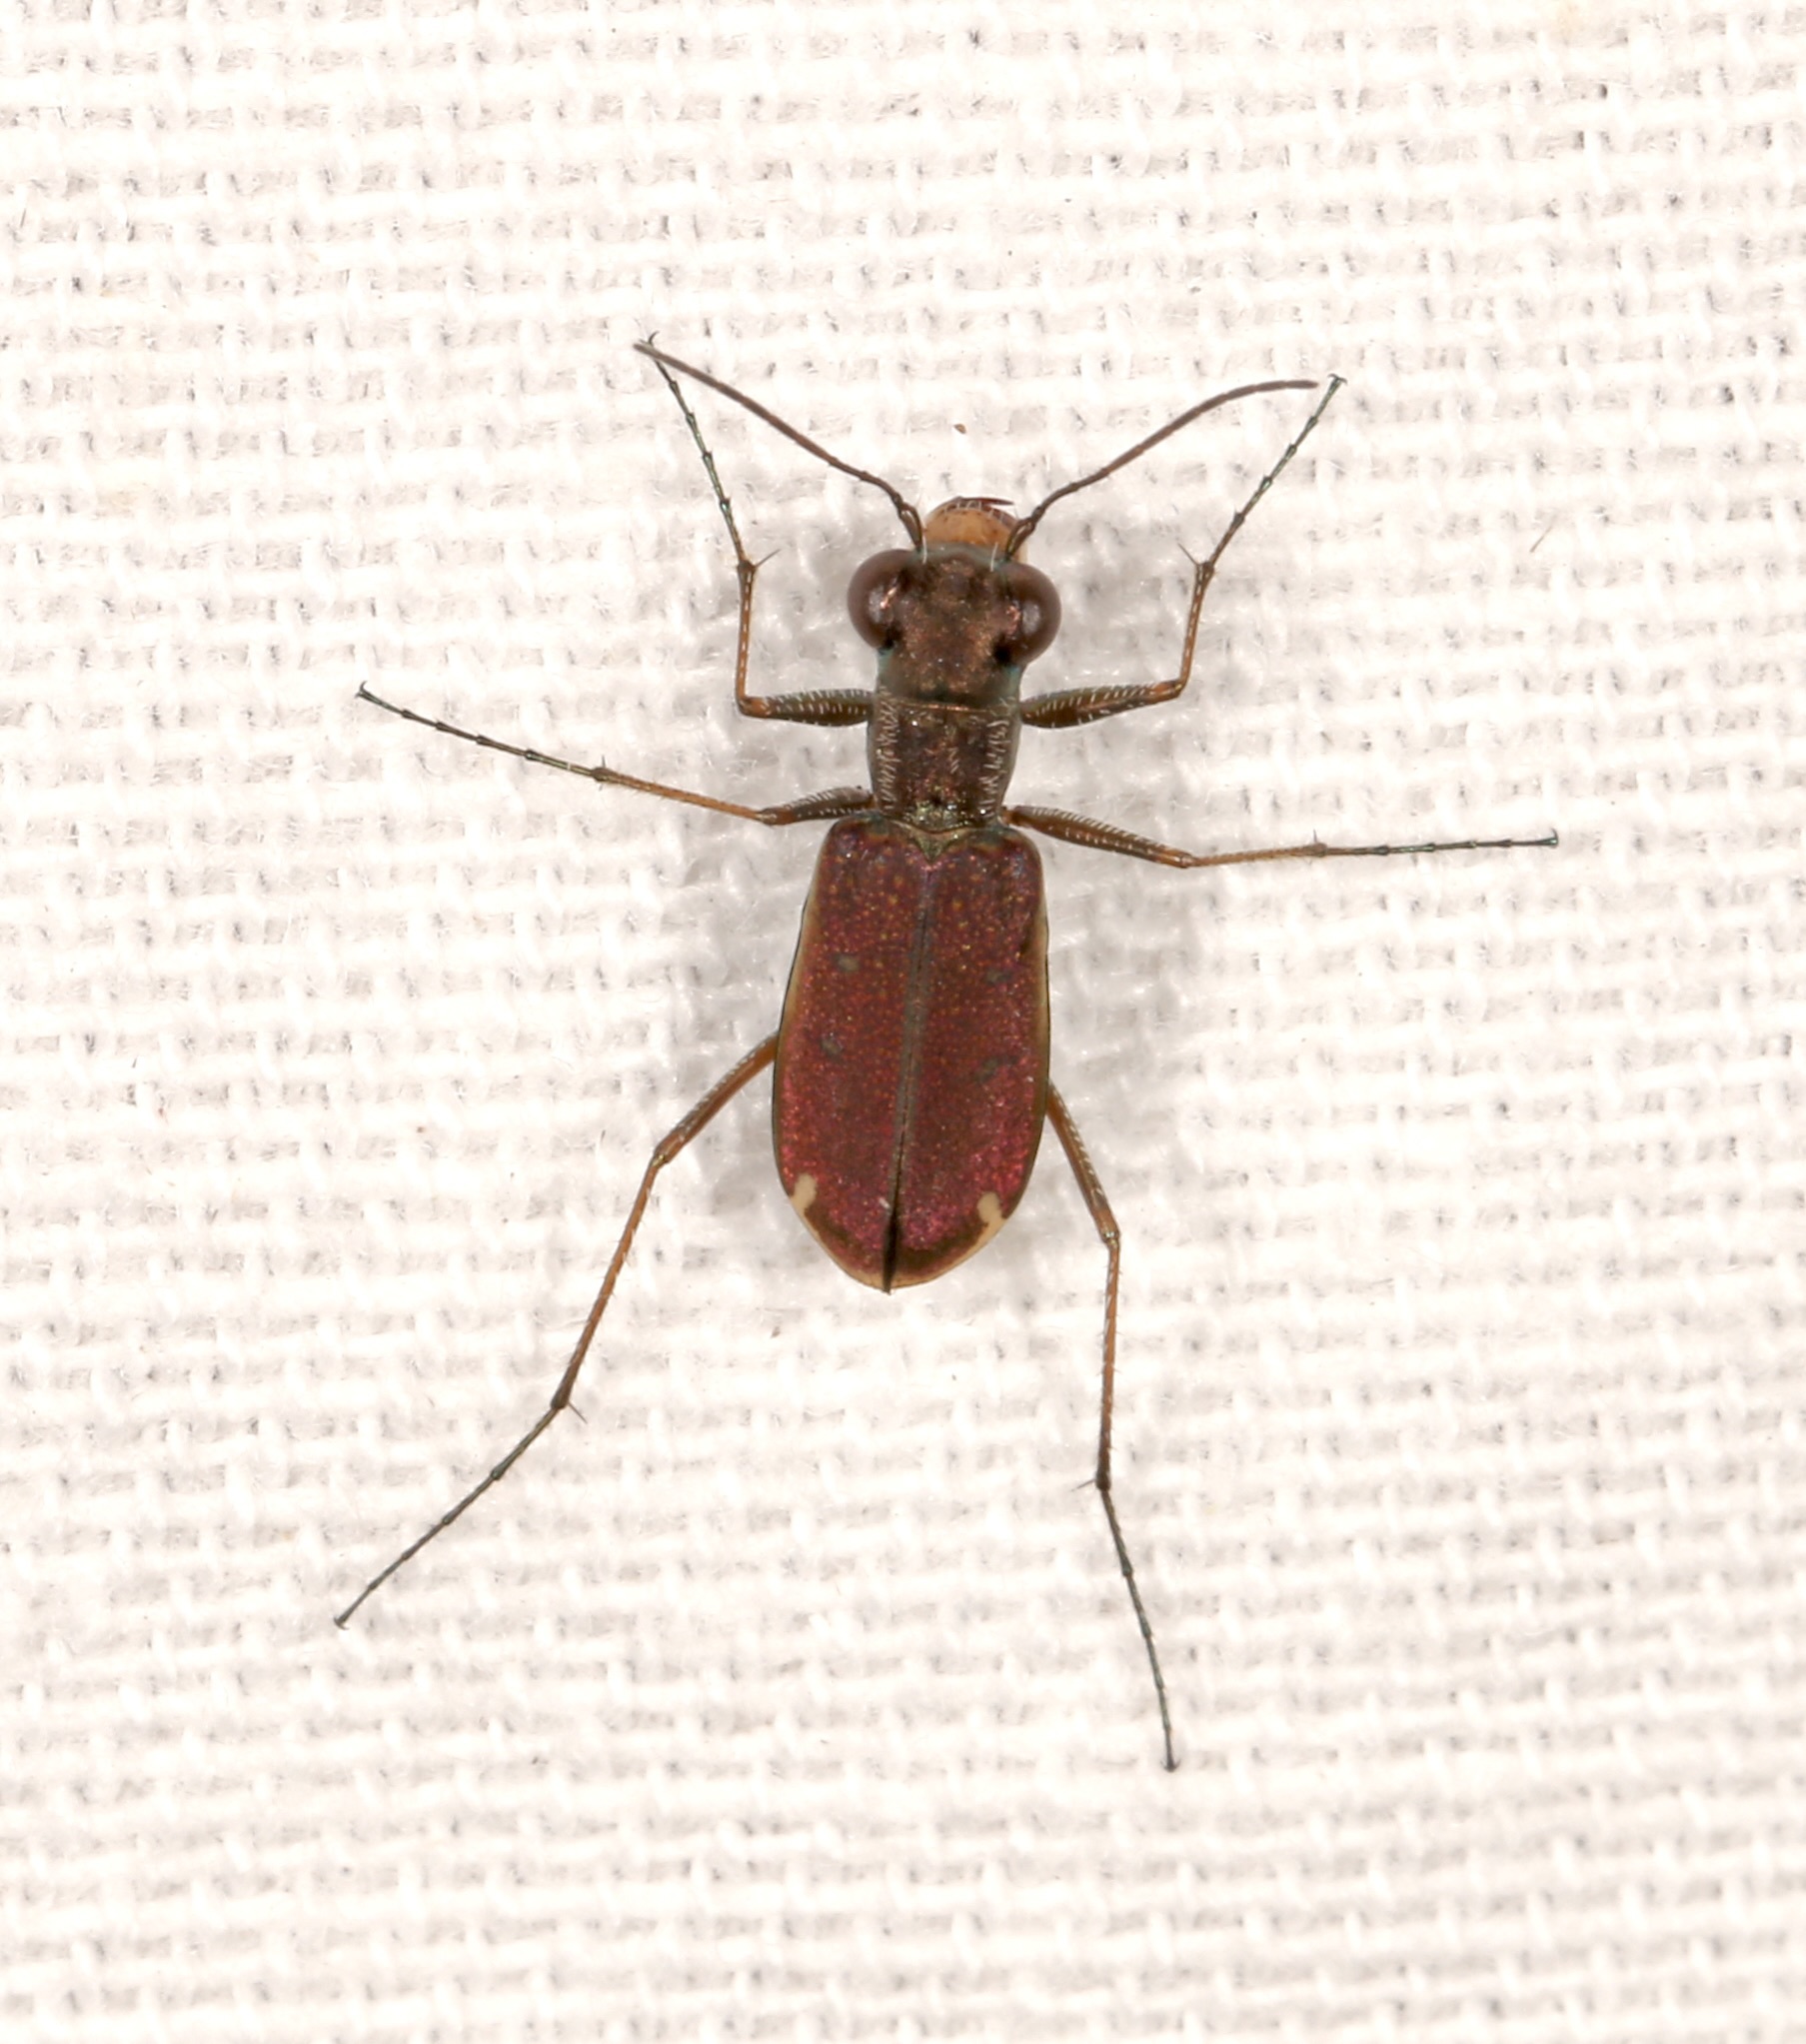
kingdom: Animalia
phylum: Arthropoda
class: Insecta
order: Coleoptera
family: Carabidae
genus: Brasiella
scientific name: Brasiella wickhami
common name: Sonoran tiger beetle
